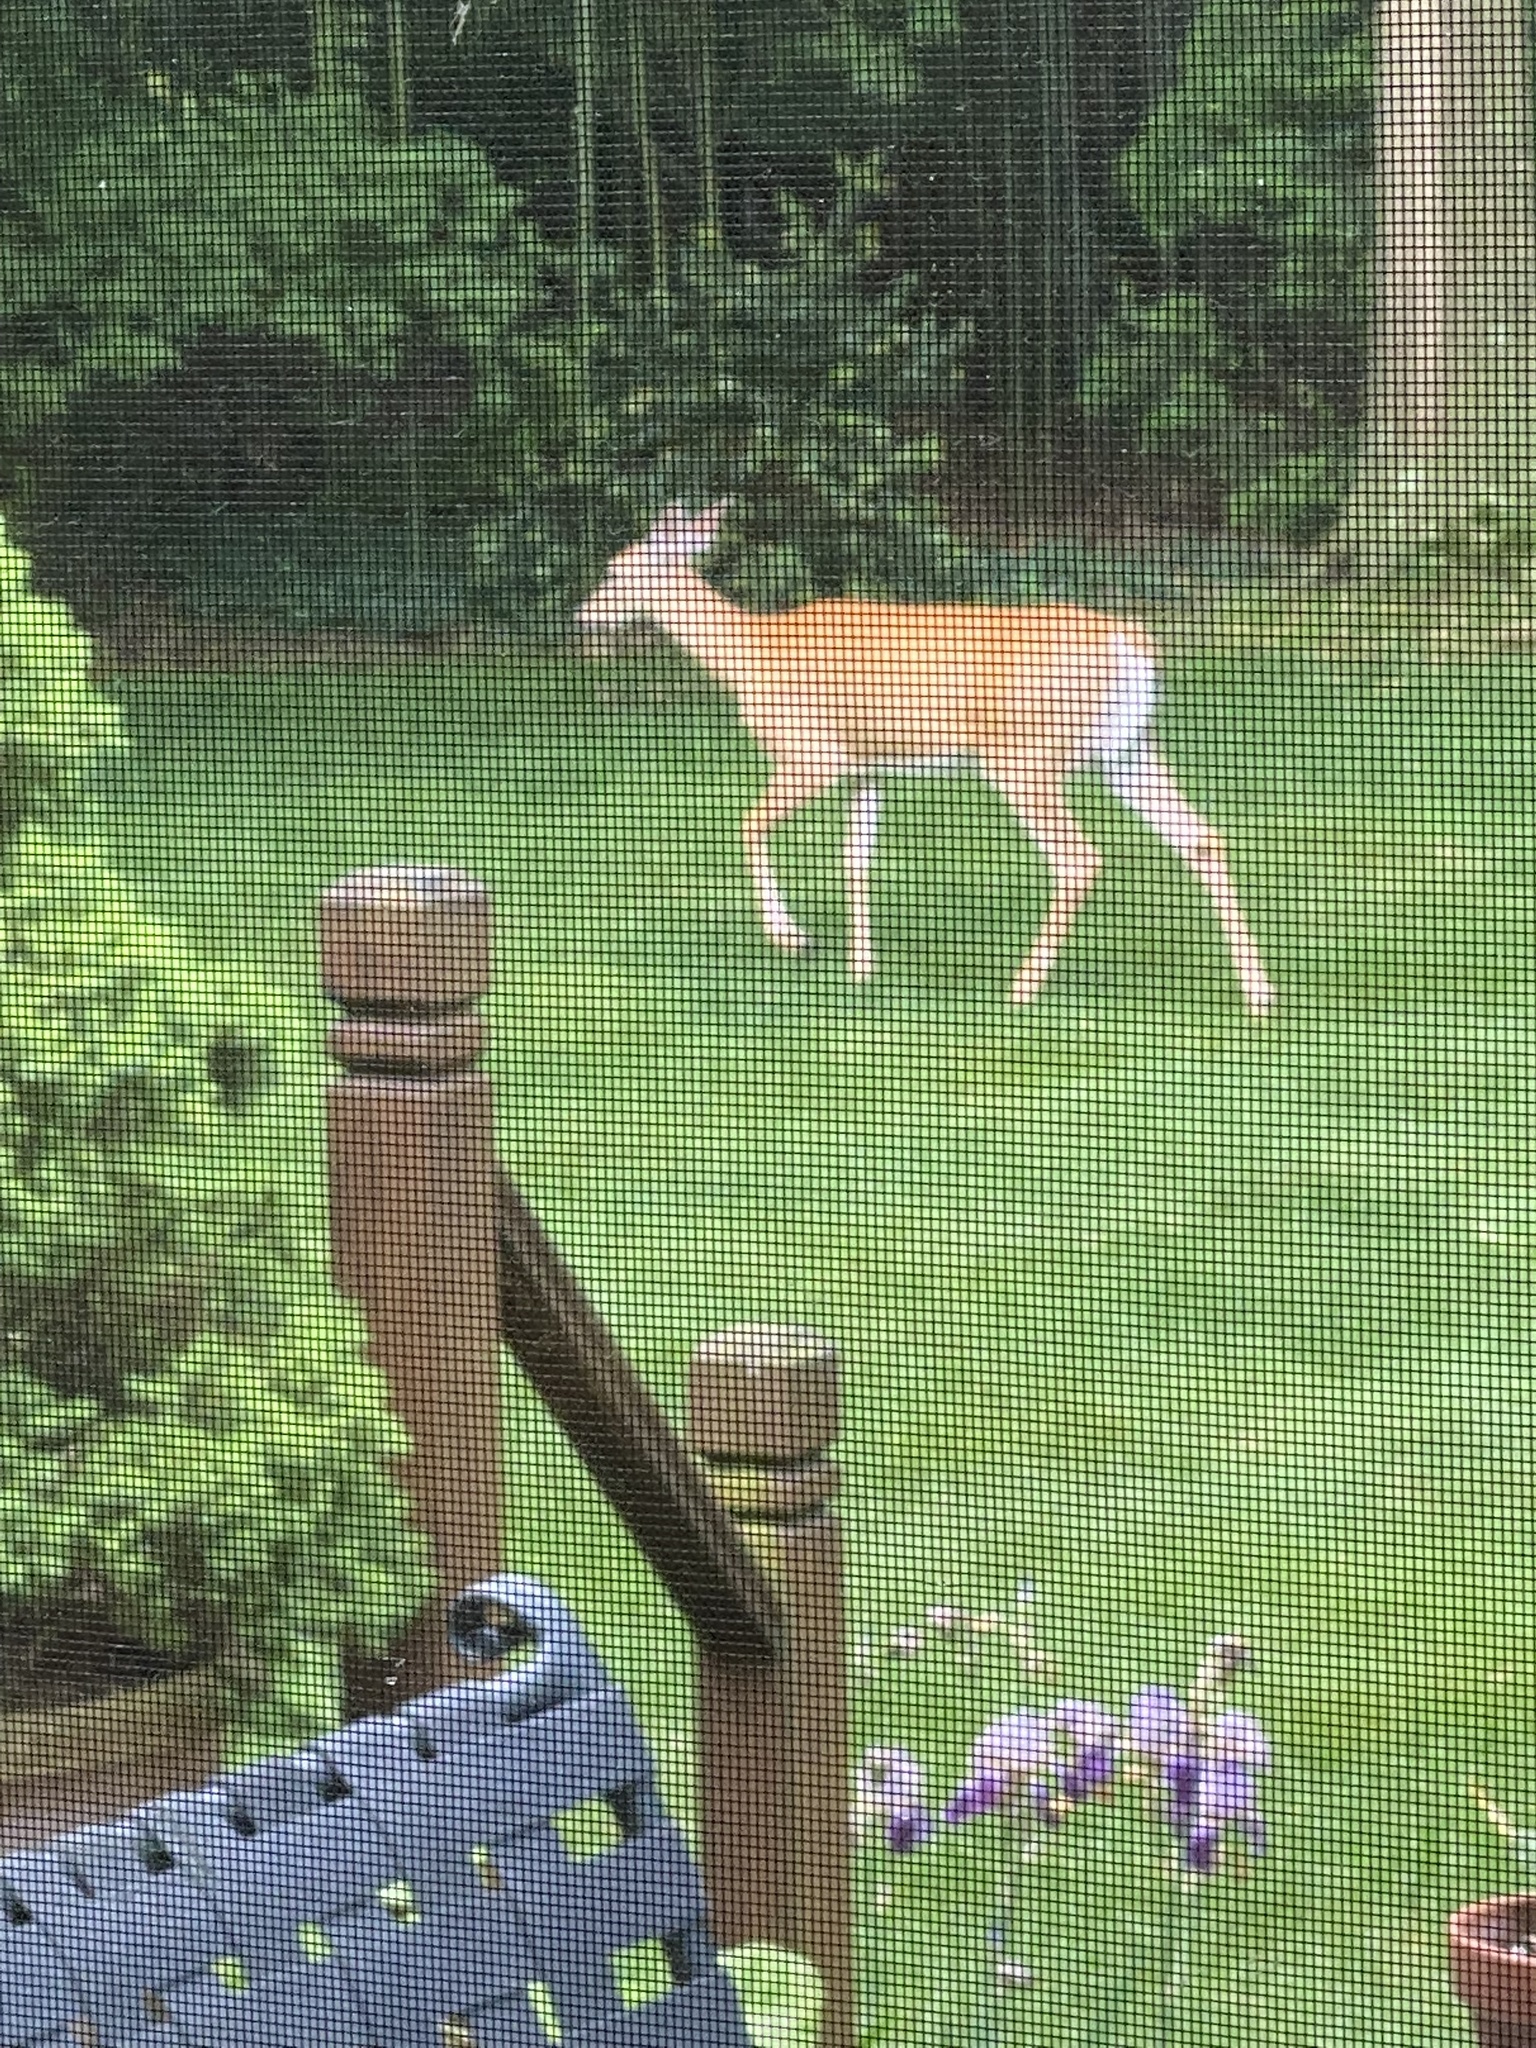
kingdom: Animalia
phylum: Chordata
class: Mammalia
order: Artiodactyla
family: Cervidae
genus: Odocoileus
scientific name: Odocoileus virginianus
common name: White-tailed deer
